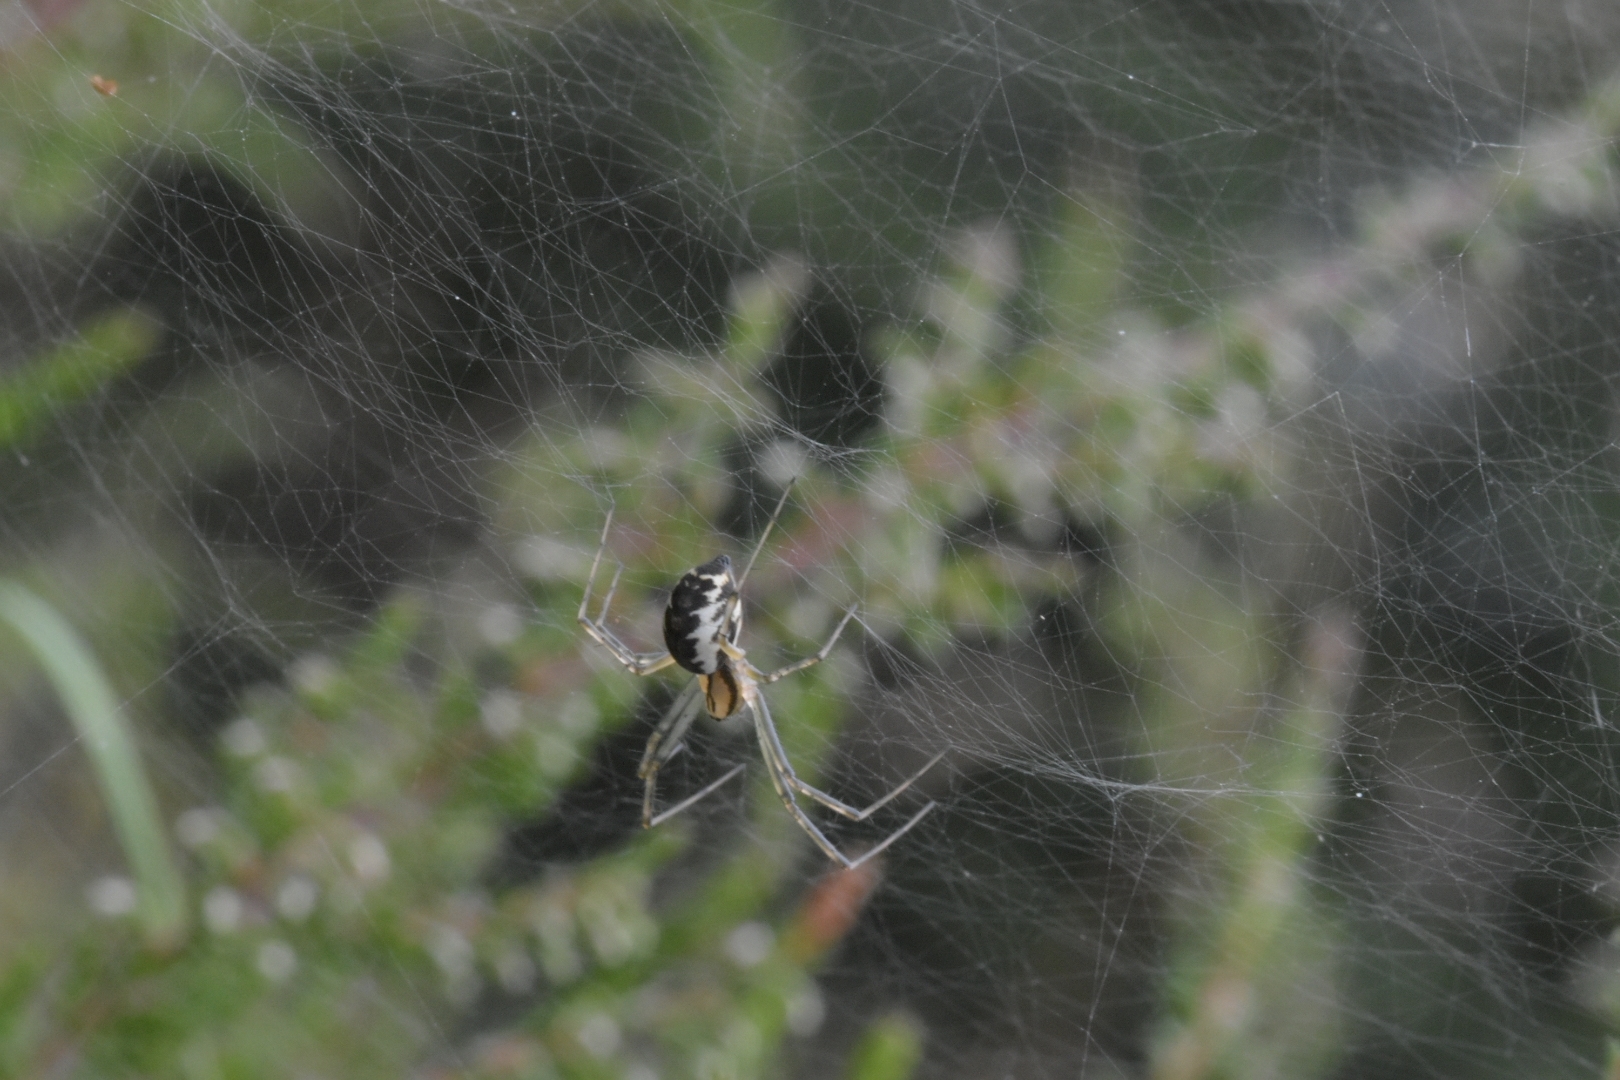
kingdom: Animalia
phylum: Arthropoda
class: Arachnida
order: Araneae
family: Linyphiidae
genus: Linyphia
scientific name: Linyphia triangularis
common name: Money spider
